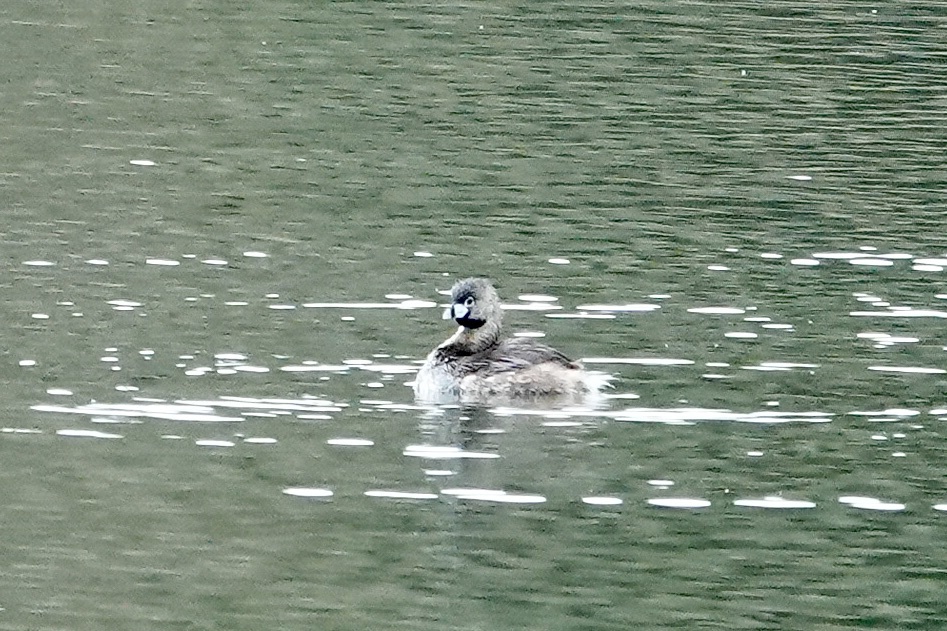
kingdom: Animalia
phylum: Chordata
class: Aves
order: Podicipediformes
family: Podicipedidae
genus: Podilymbus
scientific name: Podilymbus podiceps
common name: Pied-billed grebe
